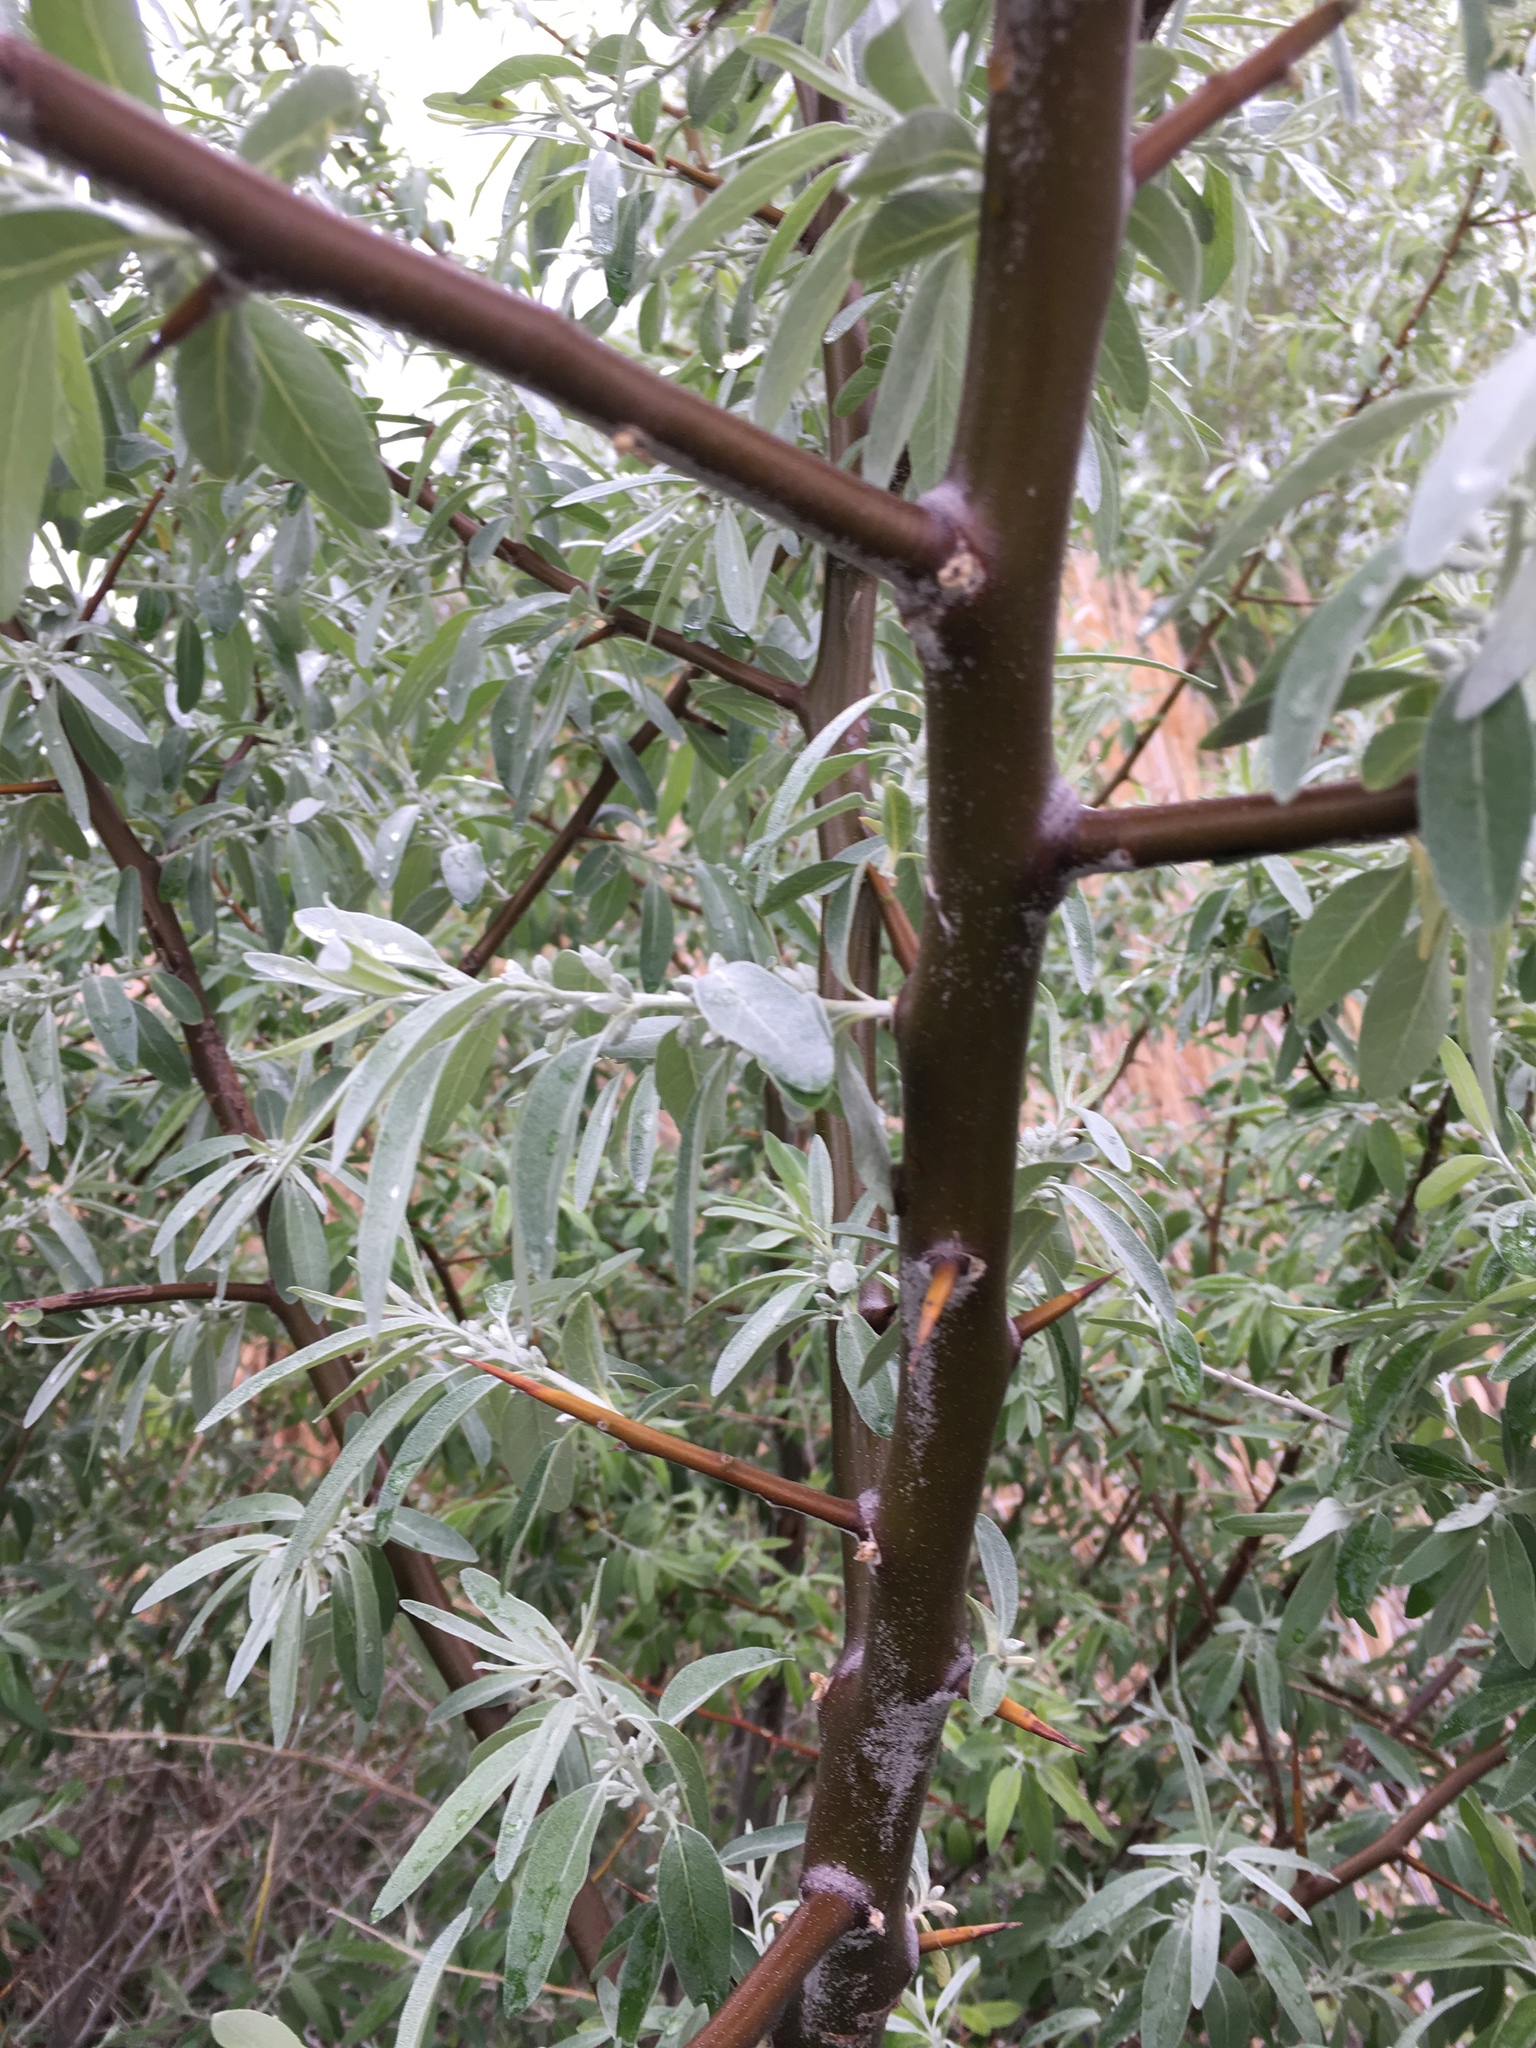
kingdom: Plantae
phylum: Tracheophyta
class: Magnoliopsida
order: Rosales
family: Elaeagnaceae
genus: Elaeagnus
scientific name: Elaeagnus angustifolia
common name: Russian olive
